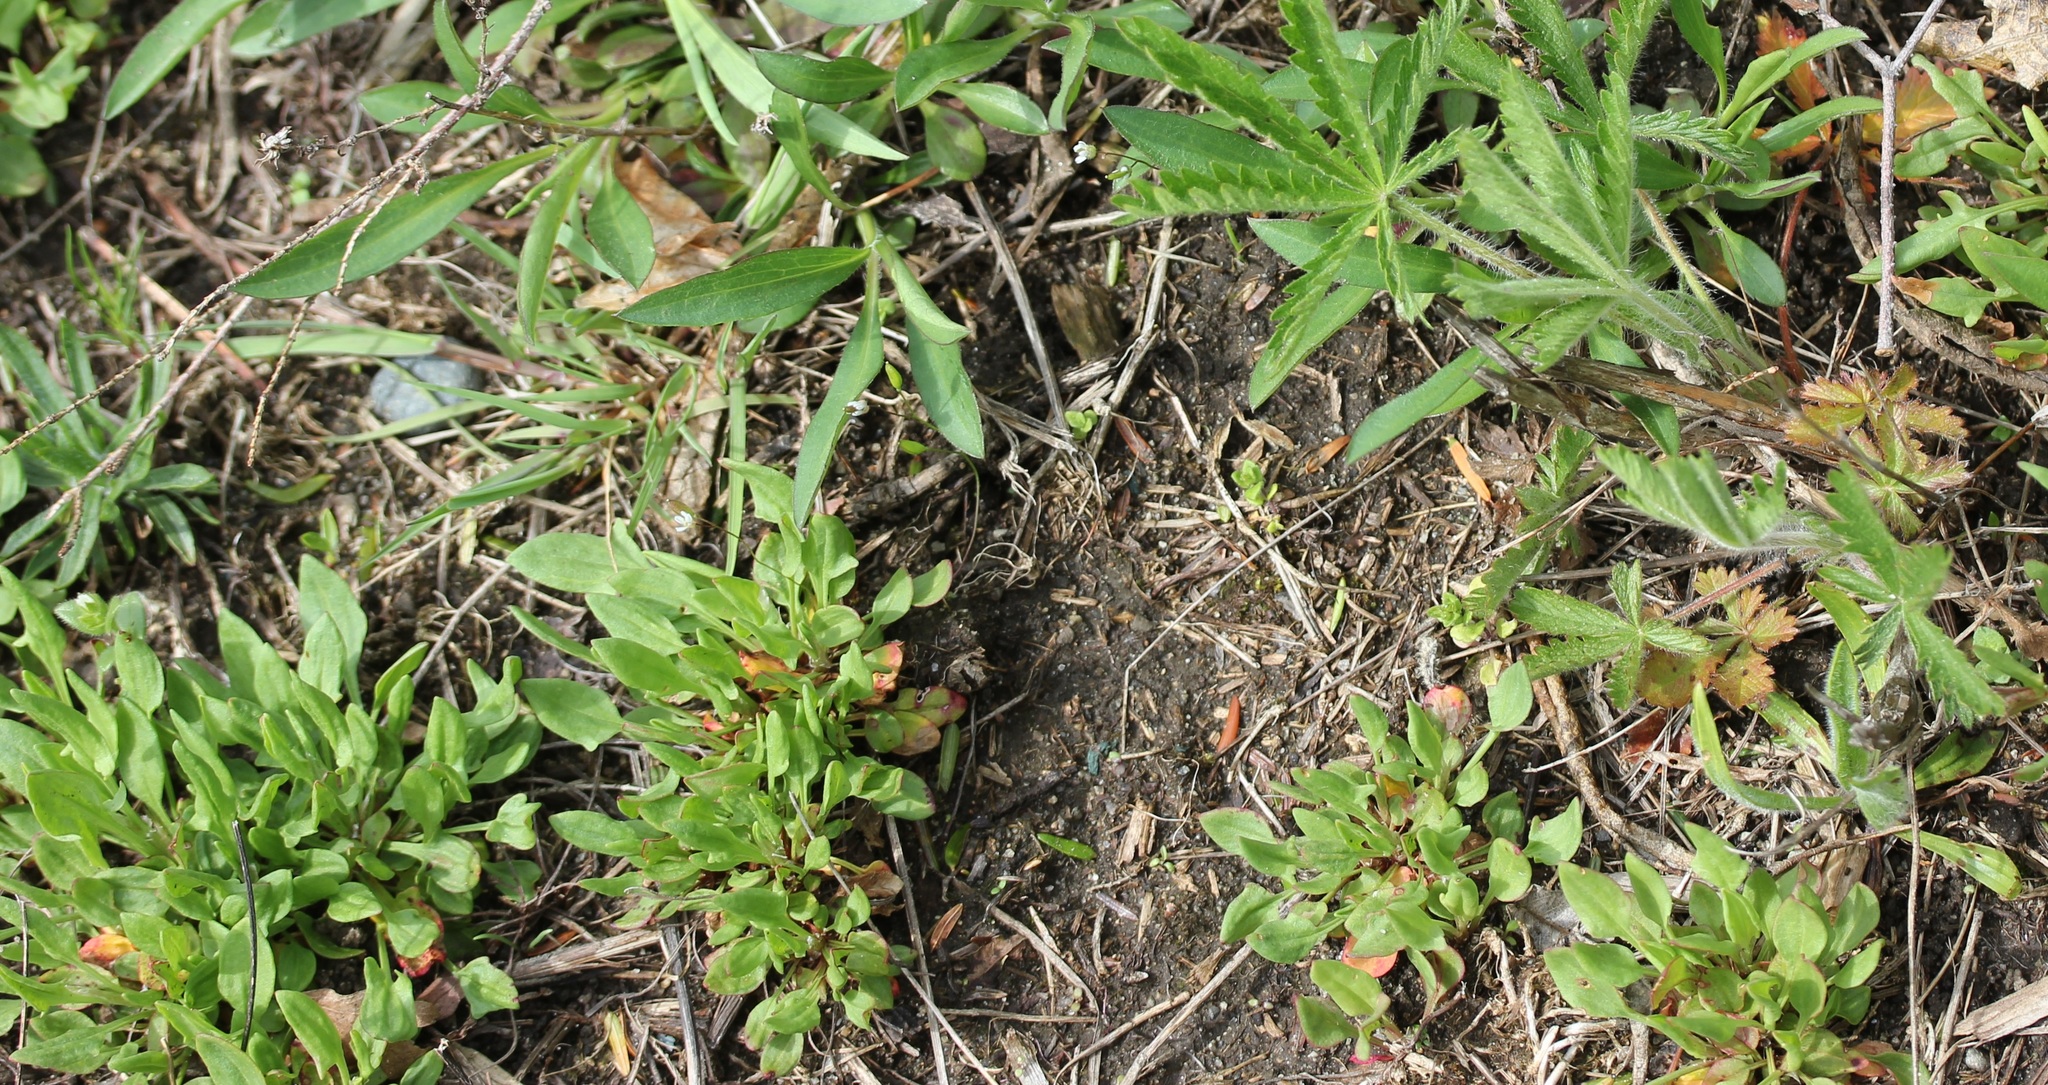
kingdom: Plantae
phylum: Tracheophyta
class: Magnoliopsida
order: Caryophyllales
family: Polygonaceae
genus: Rumex
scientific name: Rumex acetosella
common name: Common sheep sorrel
